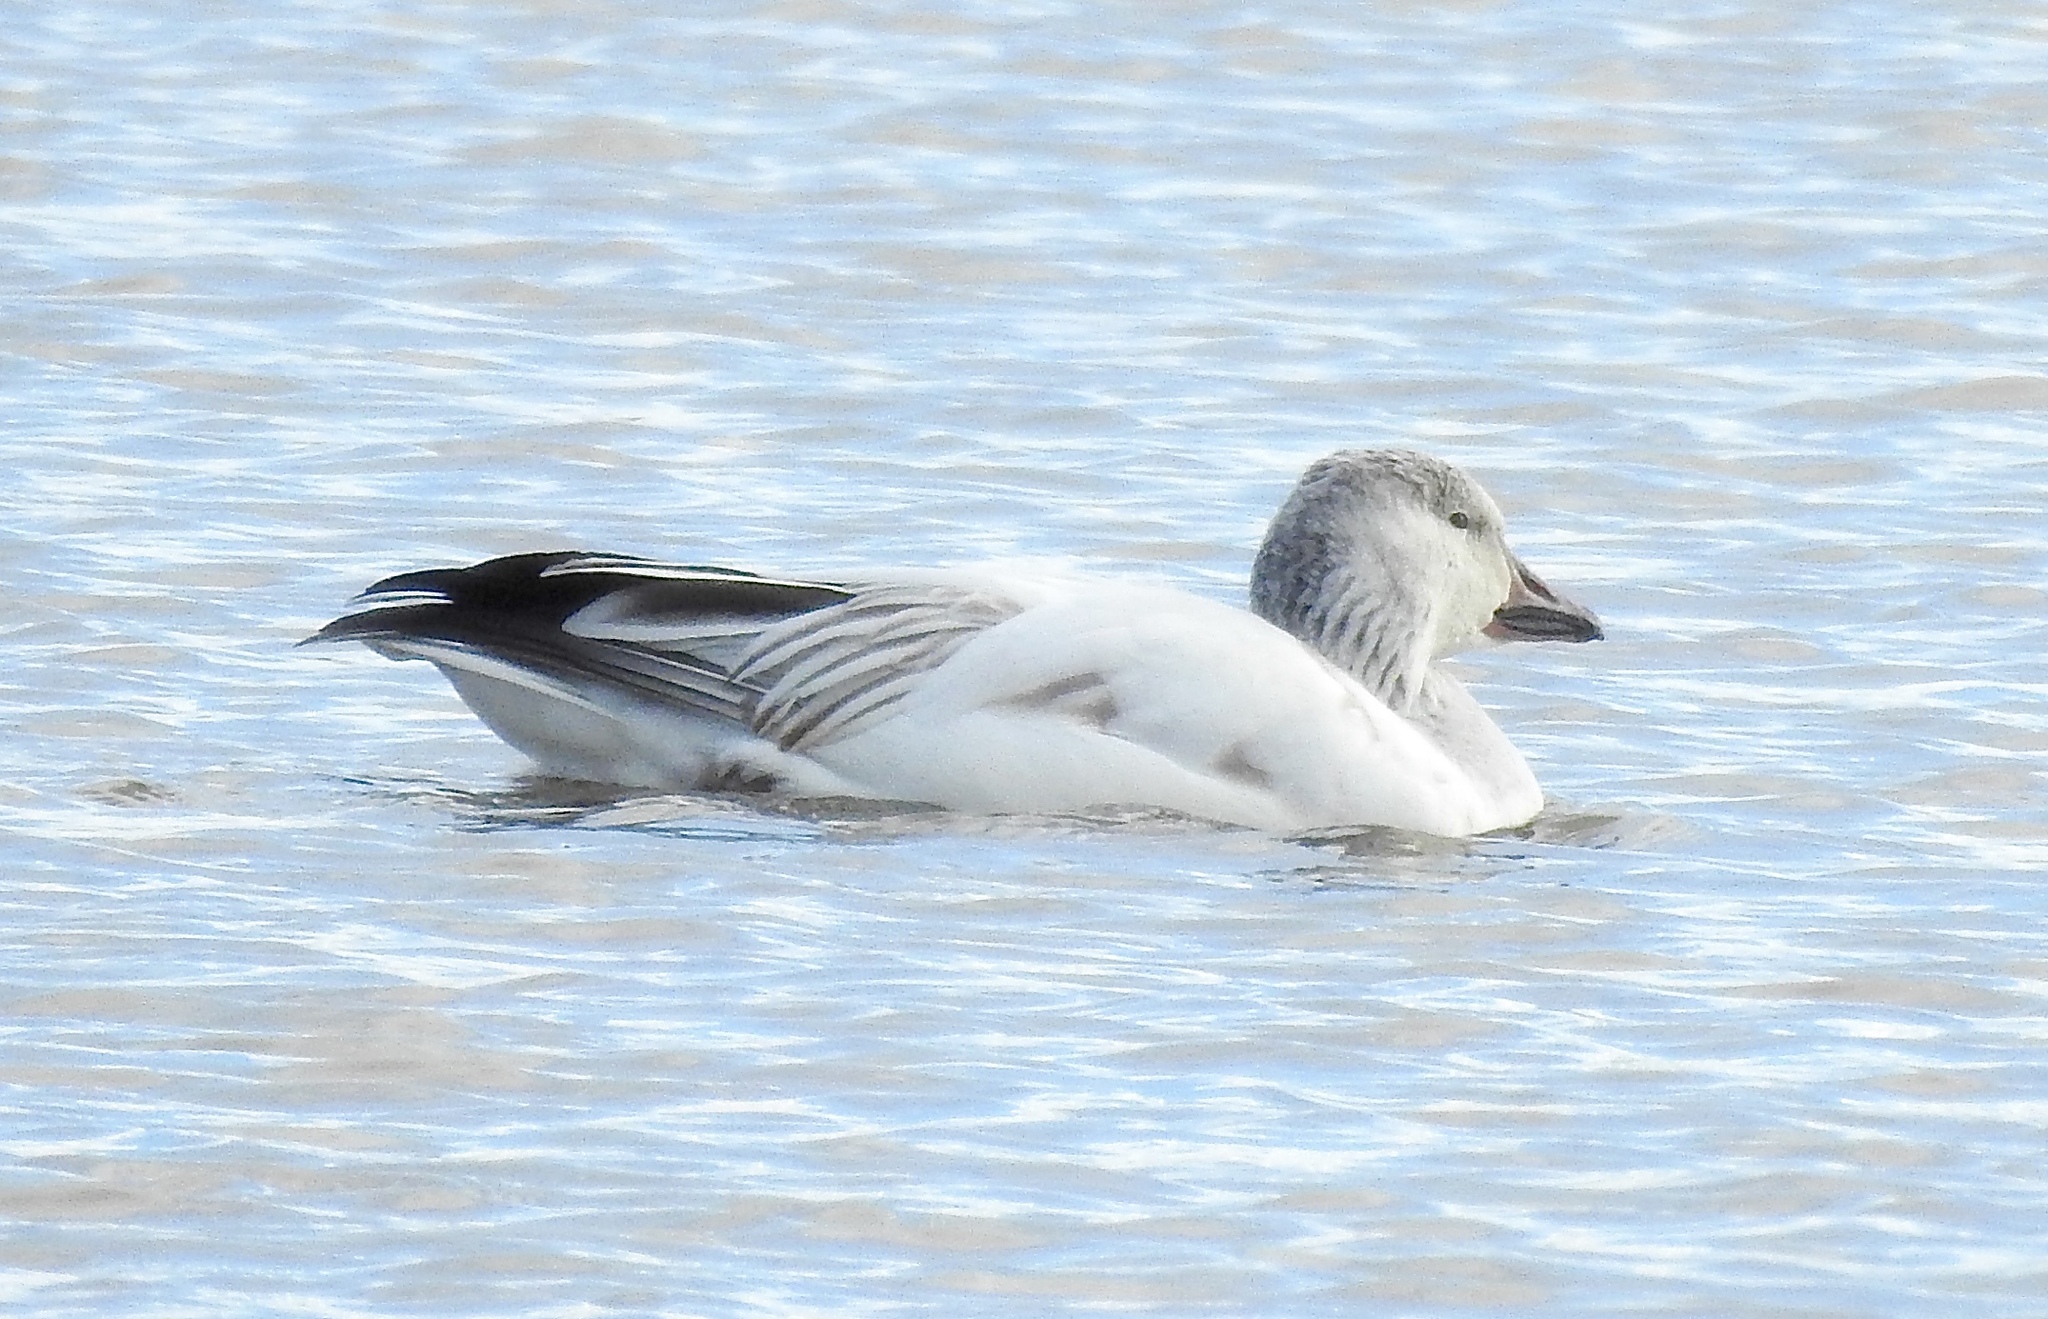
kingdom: Animalia
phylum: Chordata
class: Aves
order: Anseriformes
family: Anatidae
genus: Anser
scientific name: Anser caerulescens
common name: Snow goose
